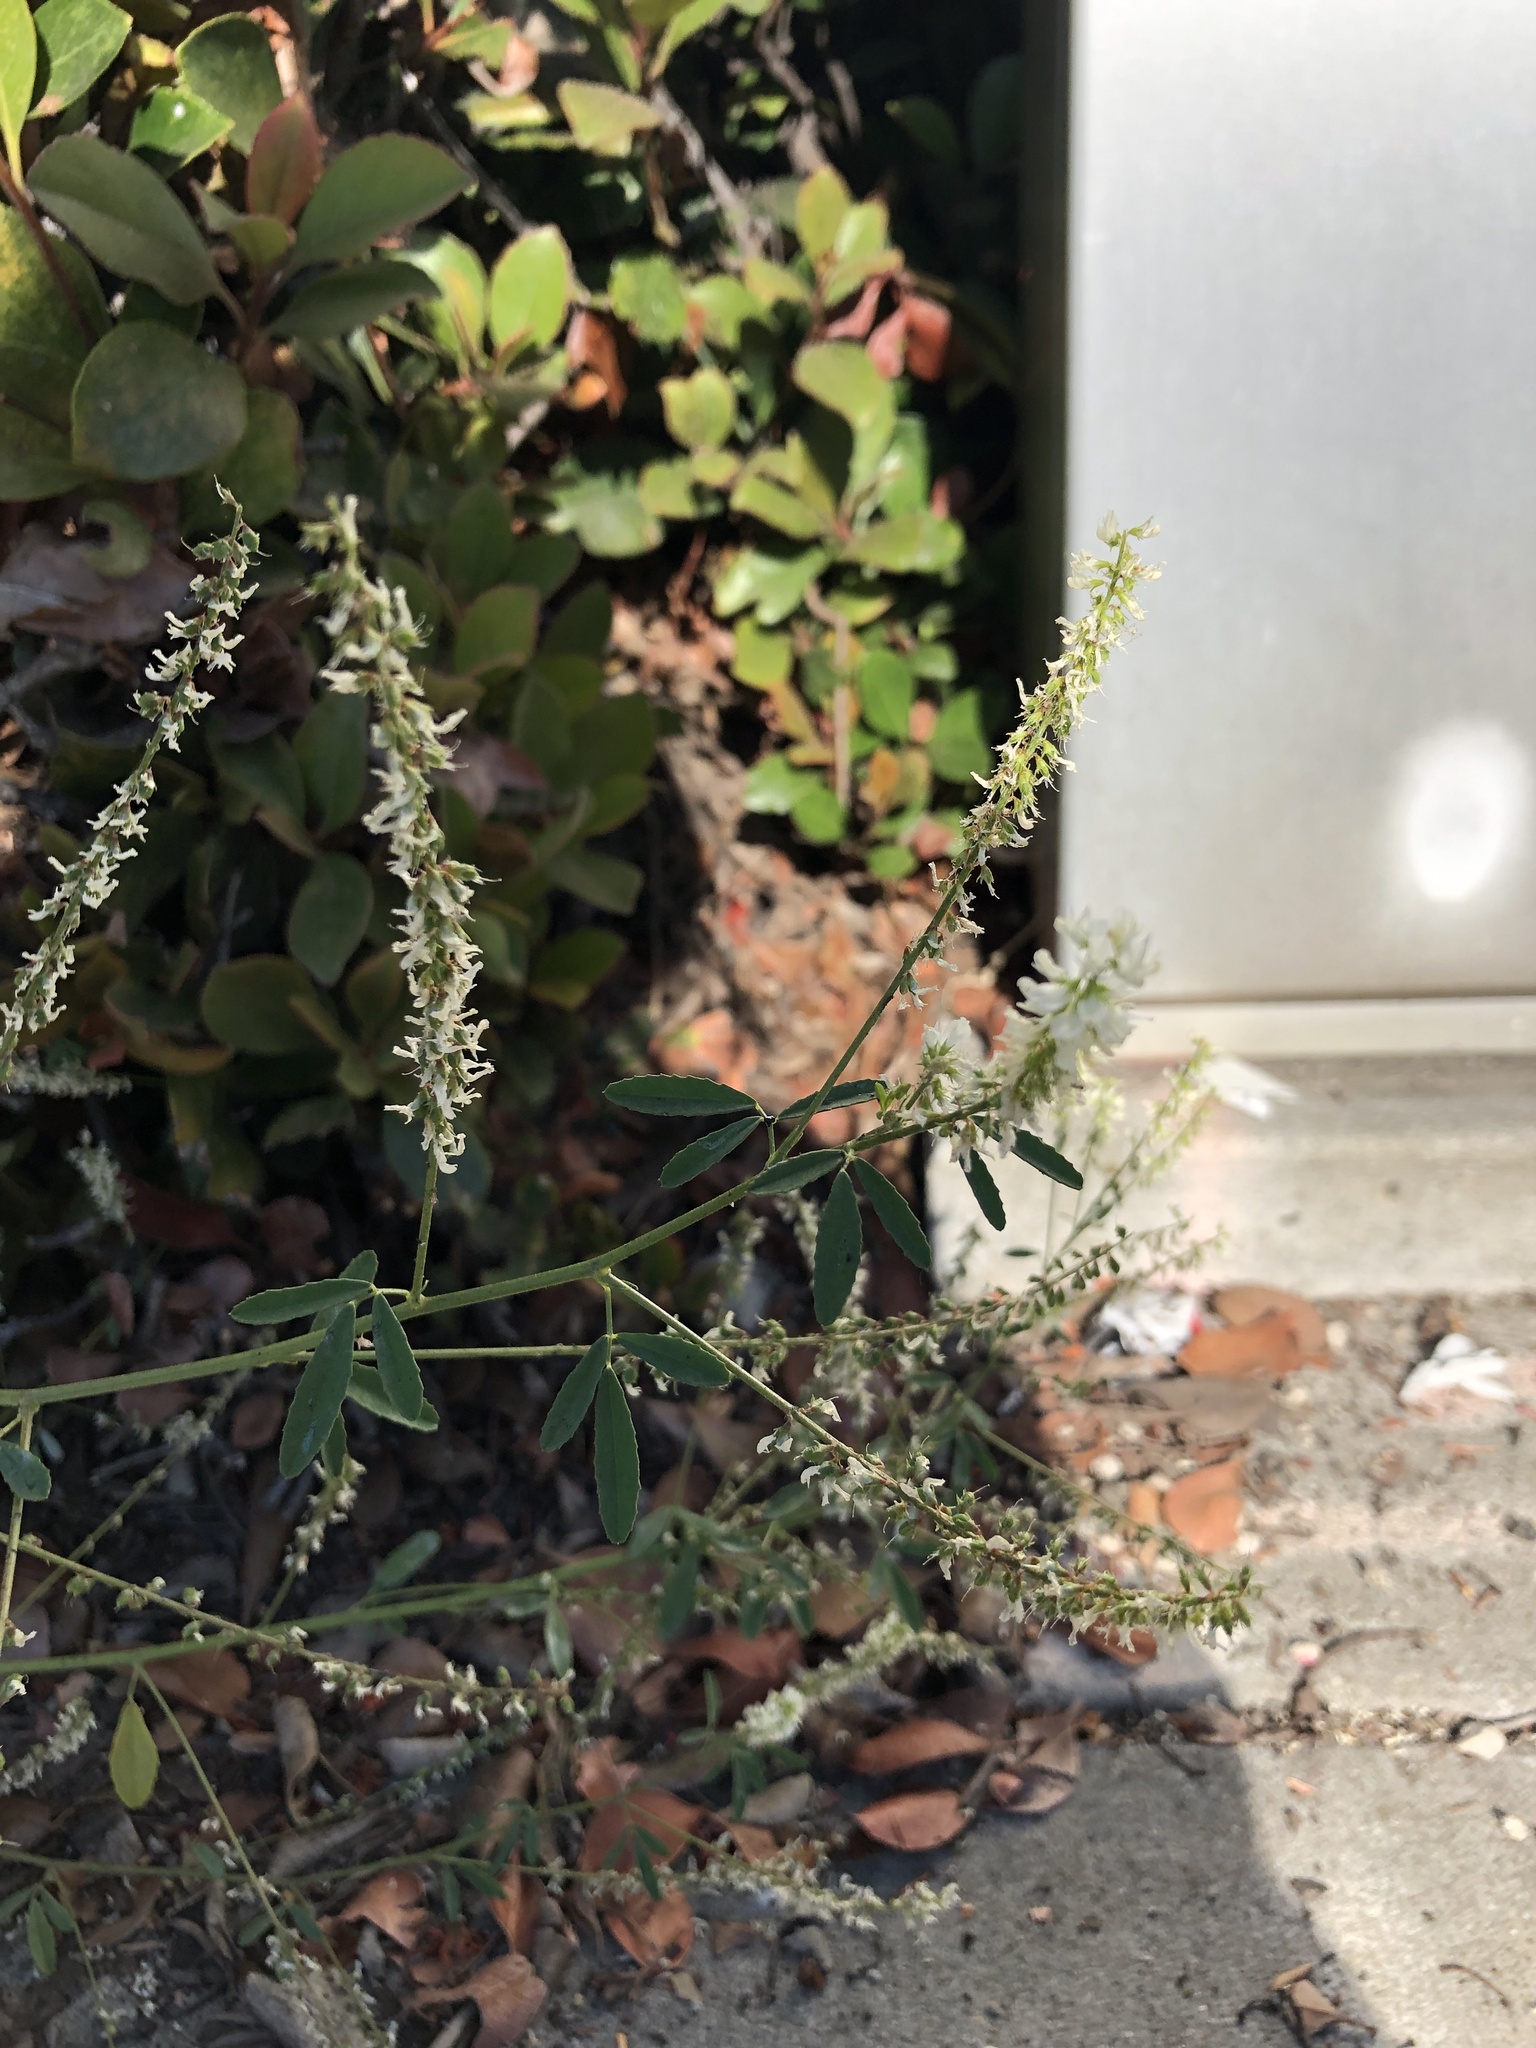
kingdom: Plantae
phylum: Tracheophyta
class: Magnoliopsida
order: Fabales
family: Fabaceae
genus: Melilotus
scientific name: Melilotus albus
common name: White melilot
